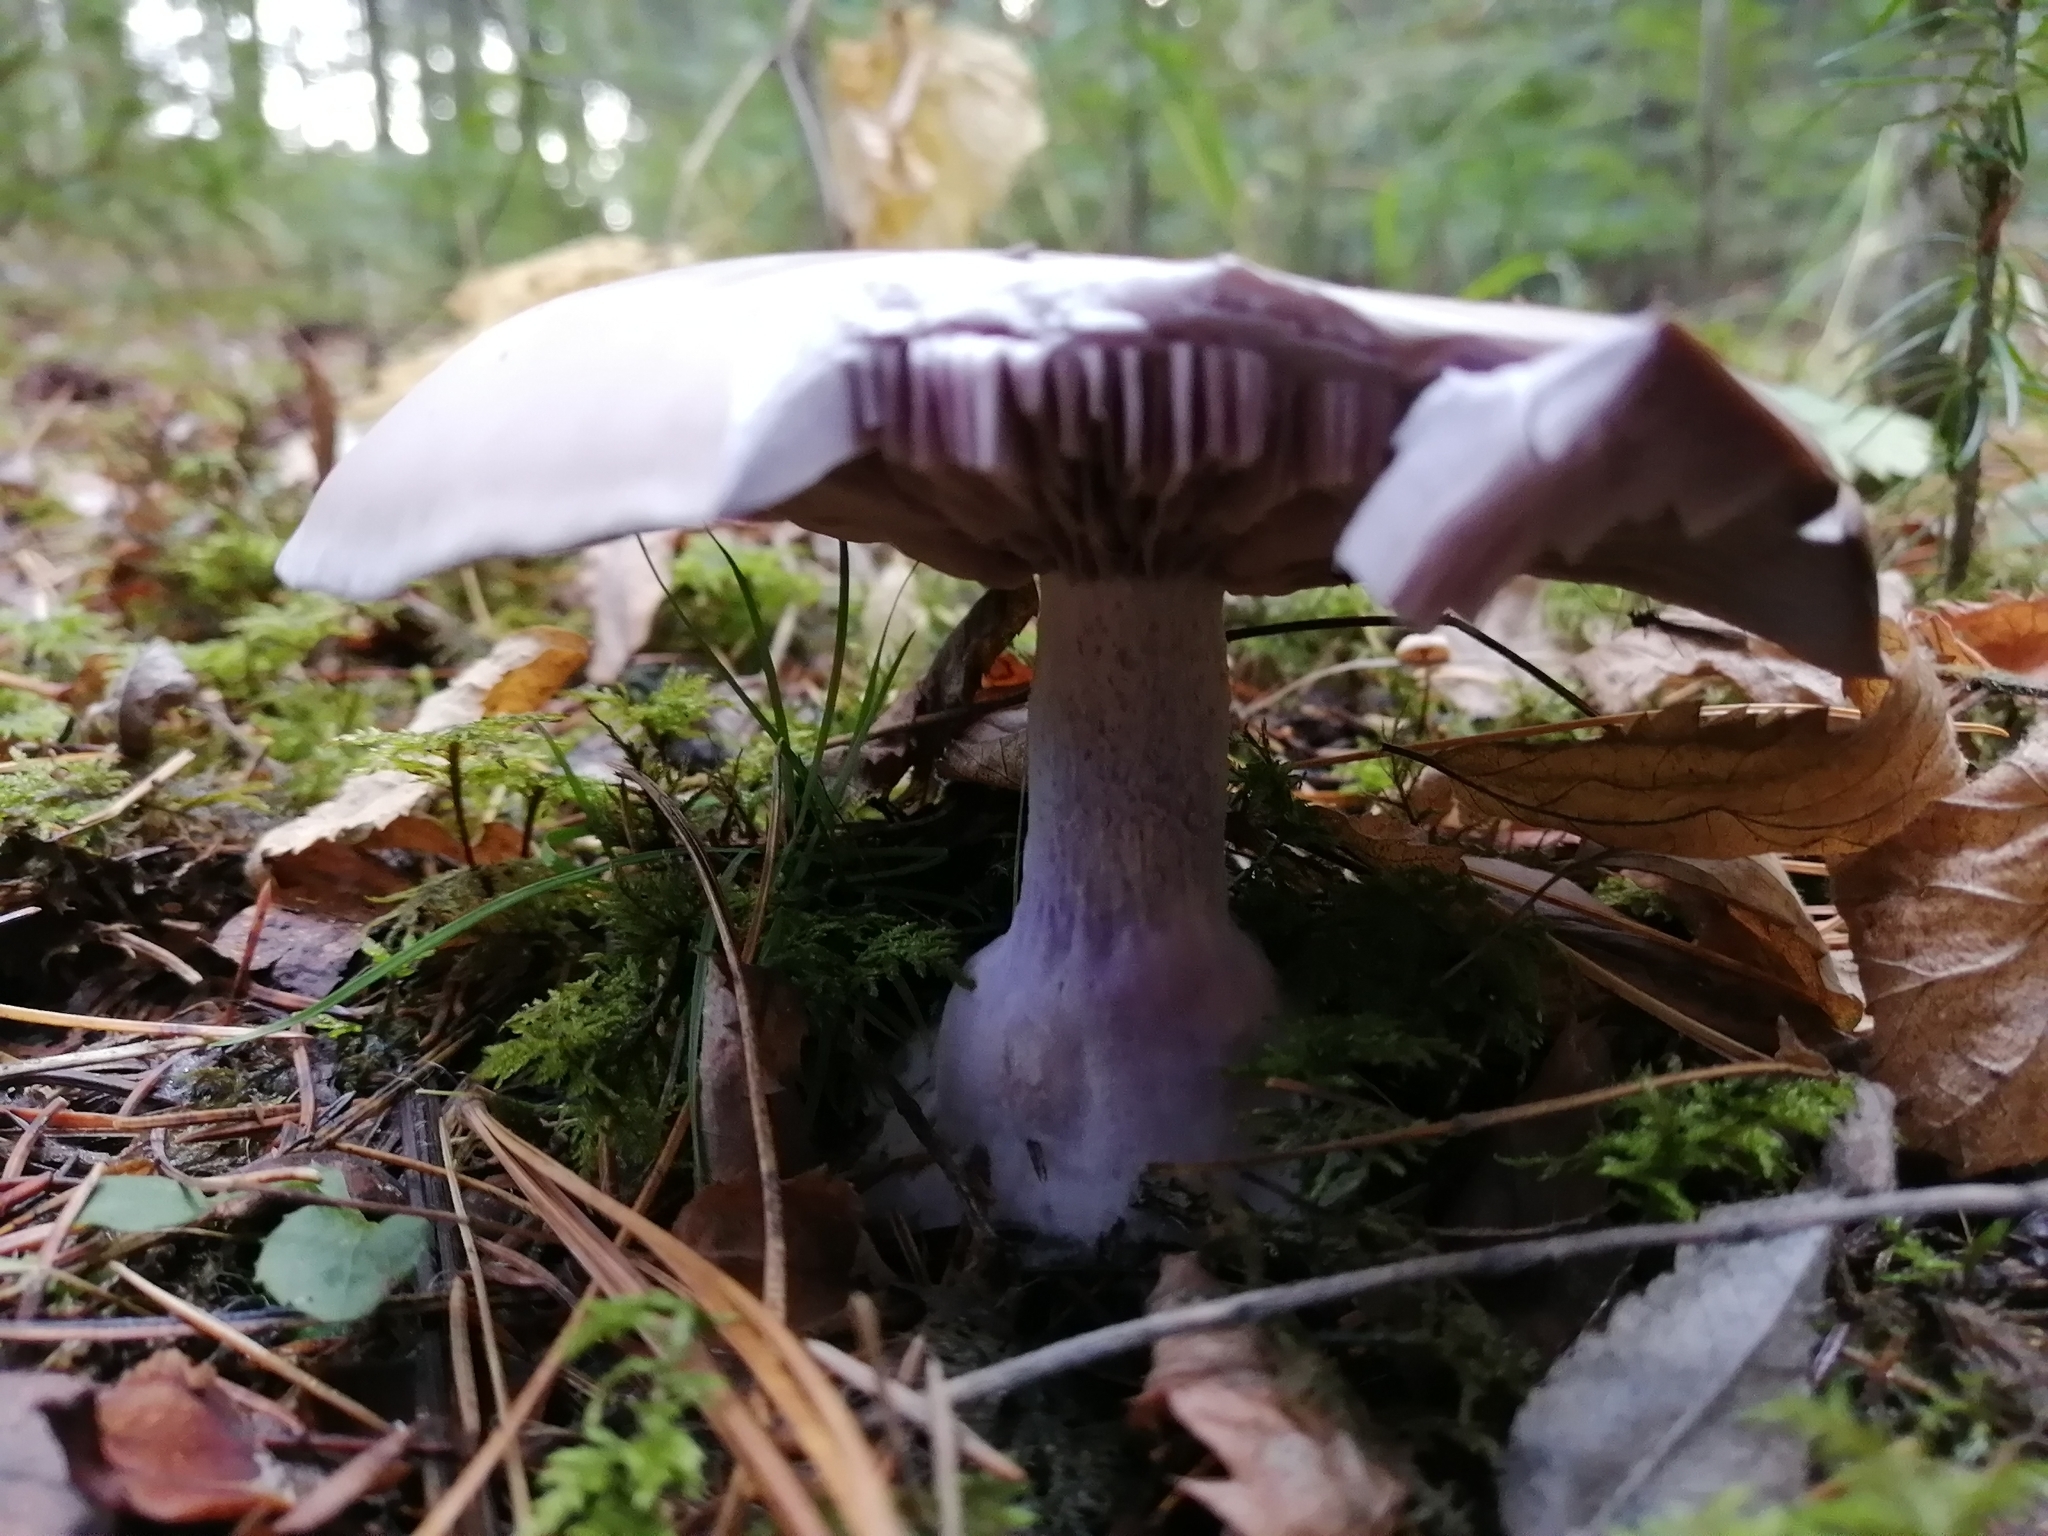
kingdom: Fungi
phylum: Basidiomycota
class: Agaricomycetes
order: Agaricales
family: Tricholomataceae
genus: Collybia
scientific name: Collybia
